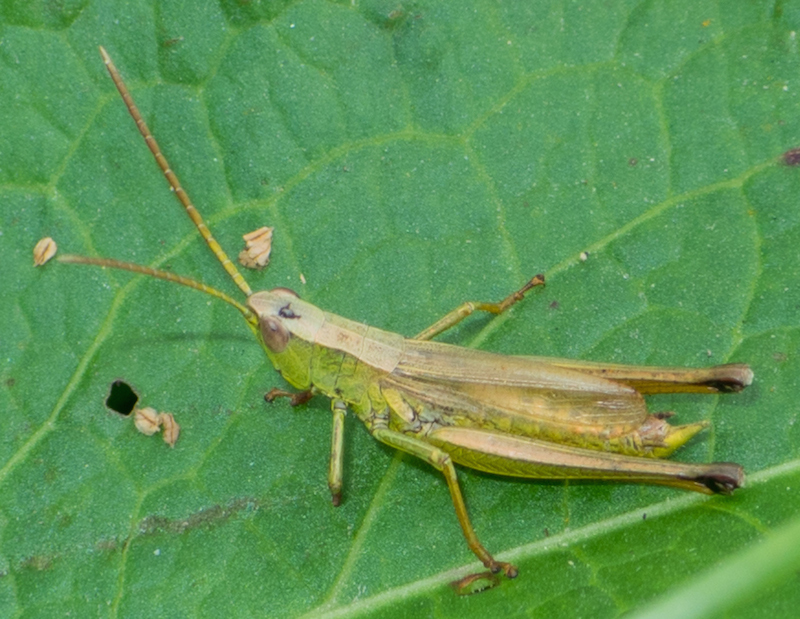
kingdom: Animalia
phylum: Arthropoda
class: Insecta
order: Orthoptera
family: Acrididae
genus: Chrysochraon
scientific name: Chrysochraon dispar
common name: Large gold grasshopper
